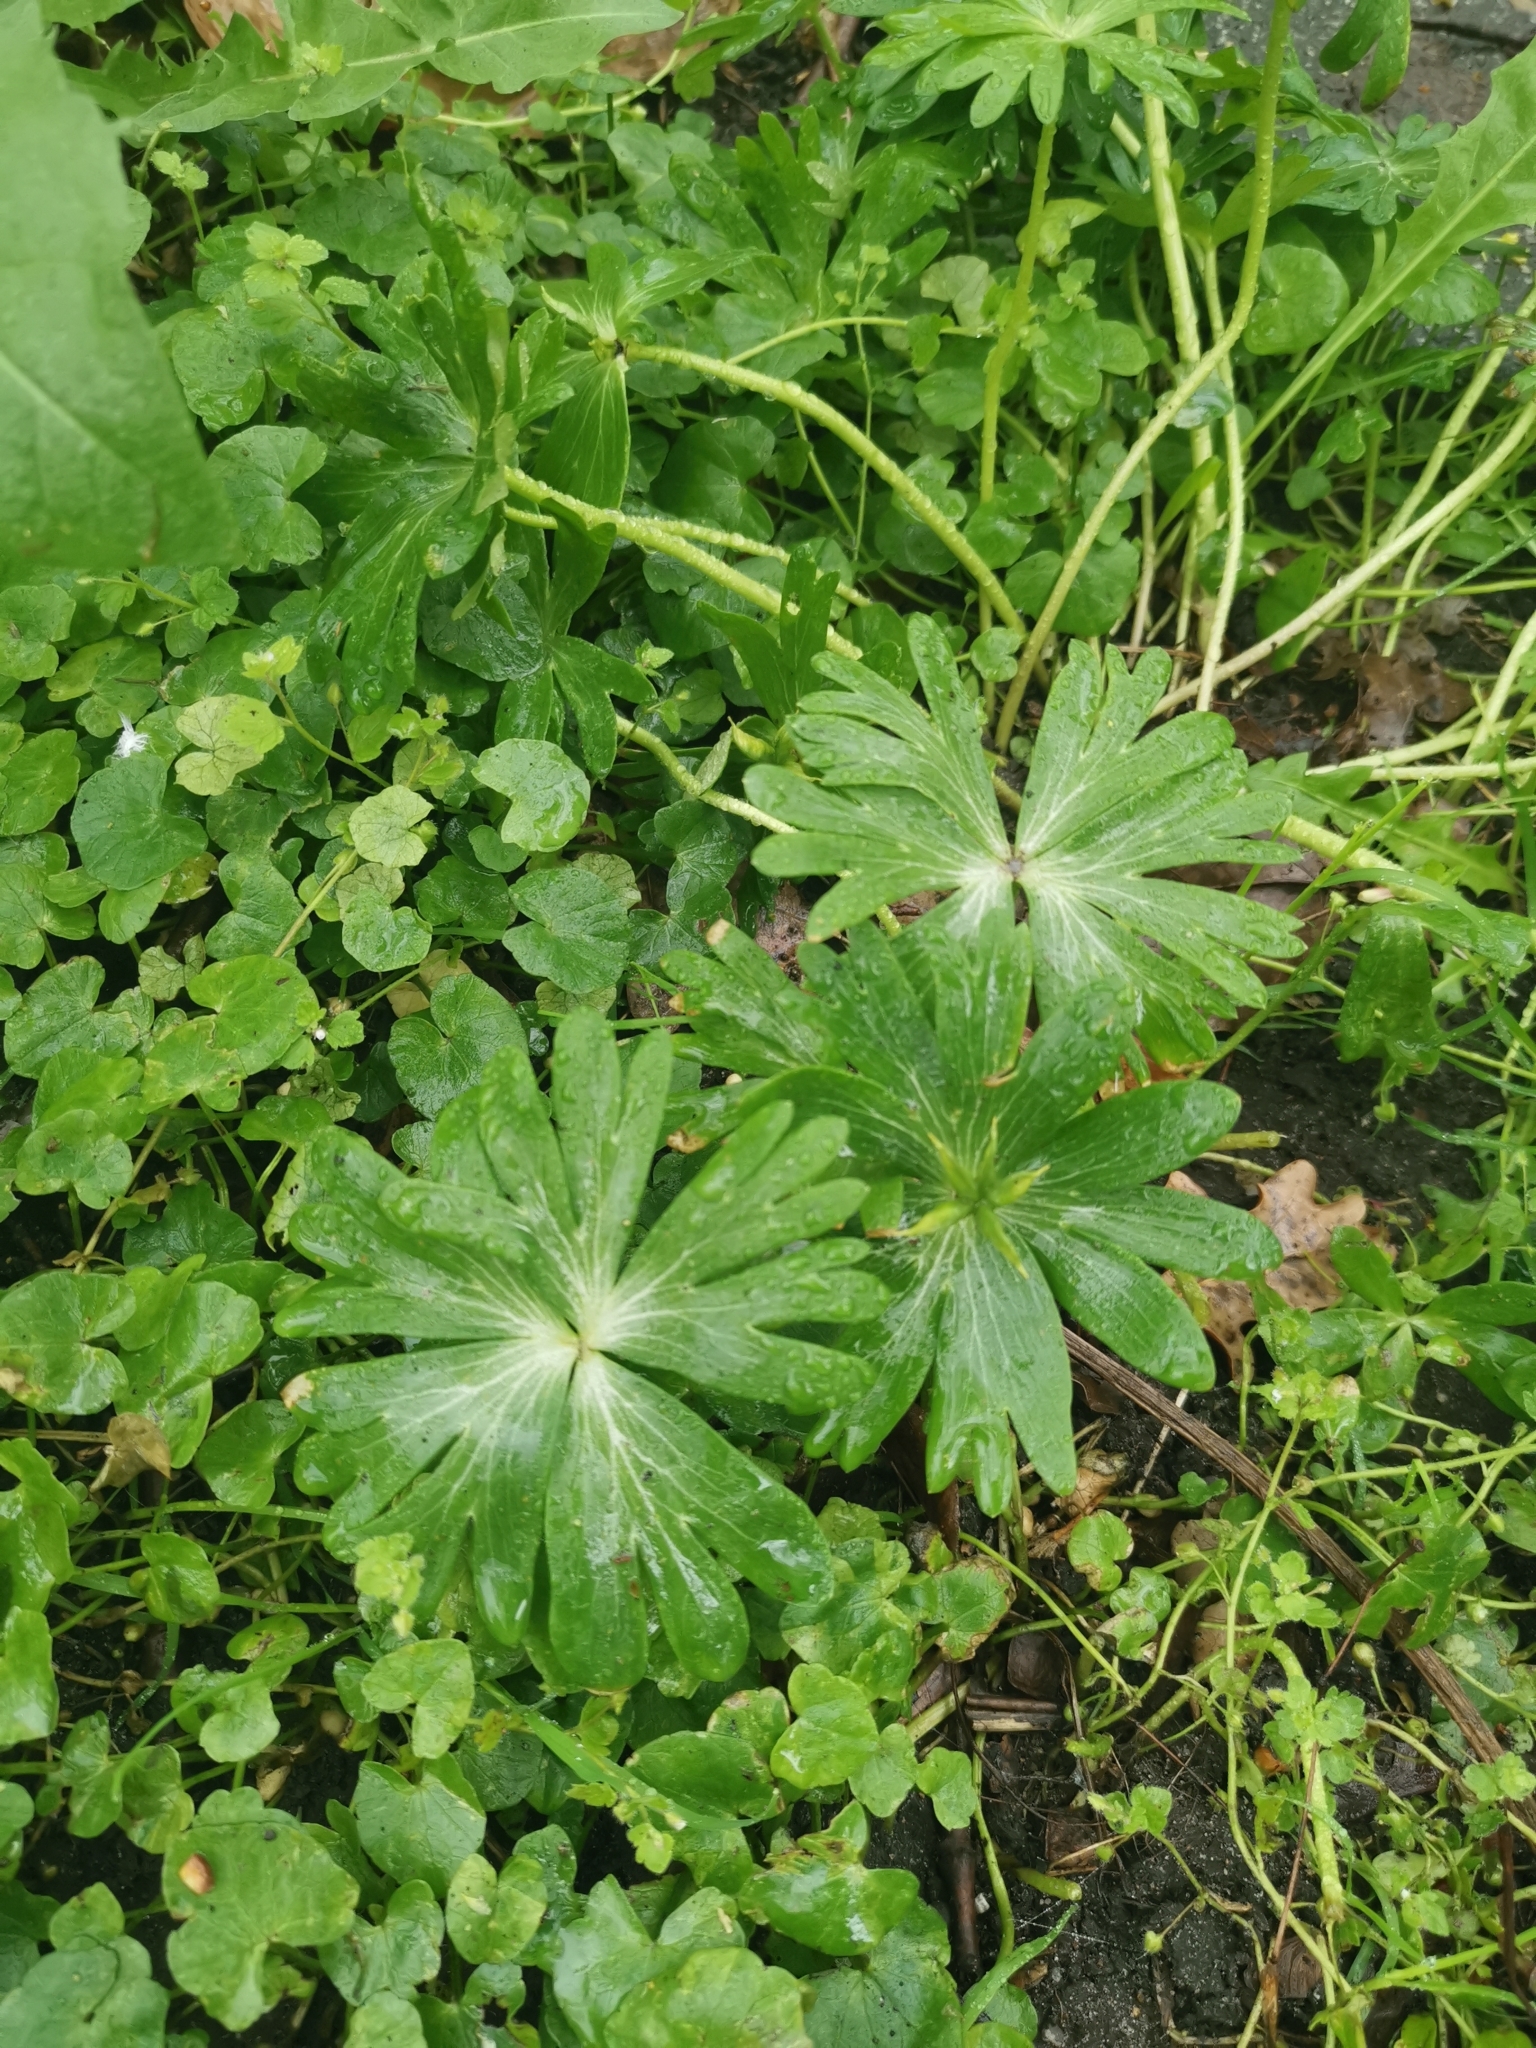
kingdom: Plantae
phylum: Tracheophyta
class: Magnoliopsida
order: Ranunculales
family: Ranunculaceae
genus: Eranthis
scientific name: Eranthis hyemalis
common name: Winter aconite
